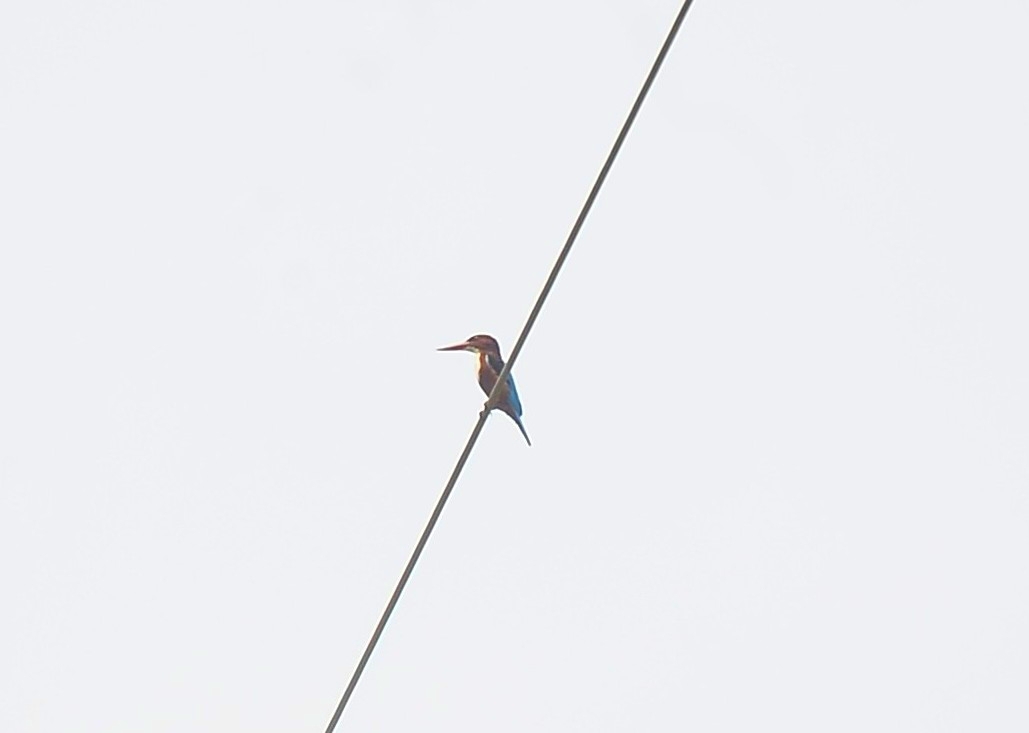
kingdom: Animalia
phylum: Chordata
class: Aves
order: Coraciiformes
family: Alcedinidae
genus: Halcyon
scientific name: Halcyon smyrnensis
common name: White-throated kingfisher
